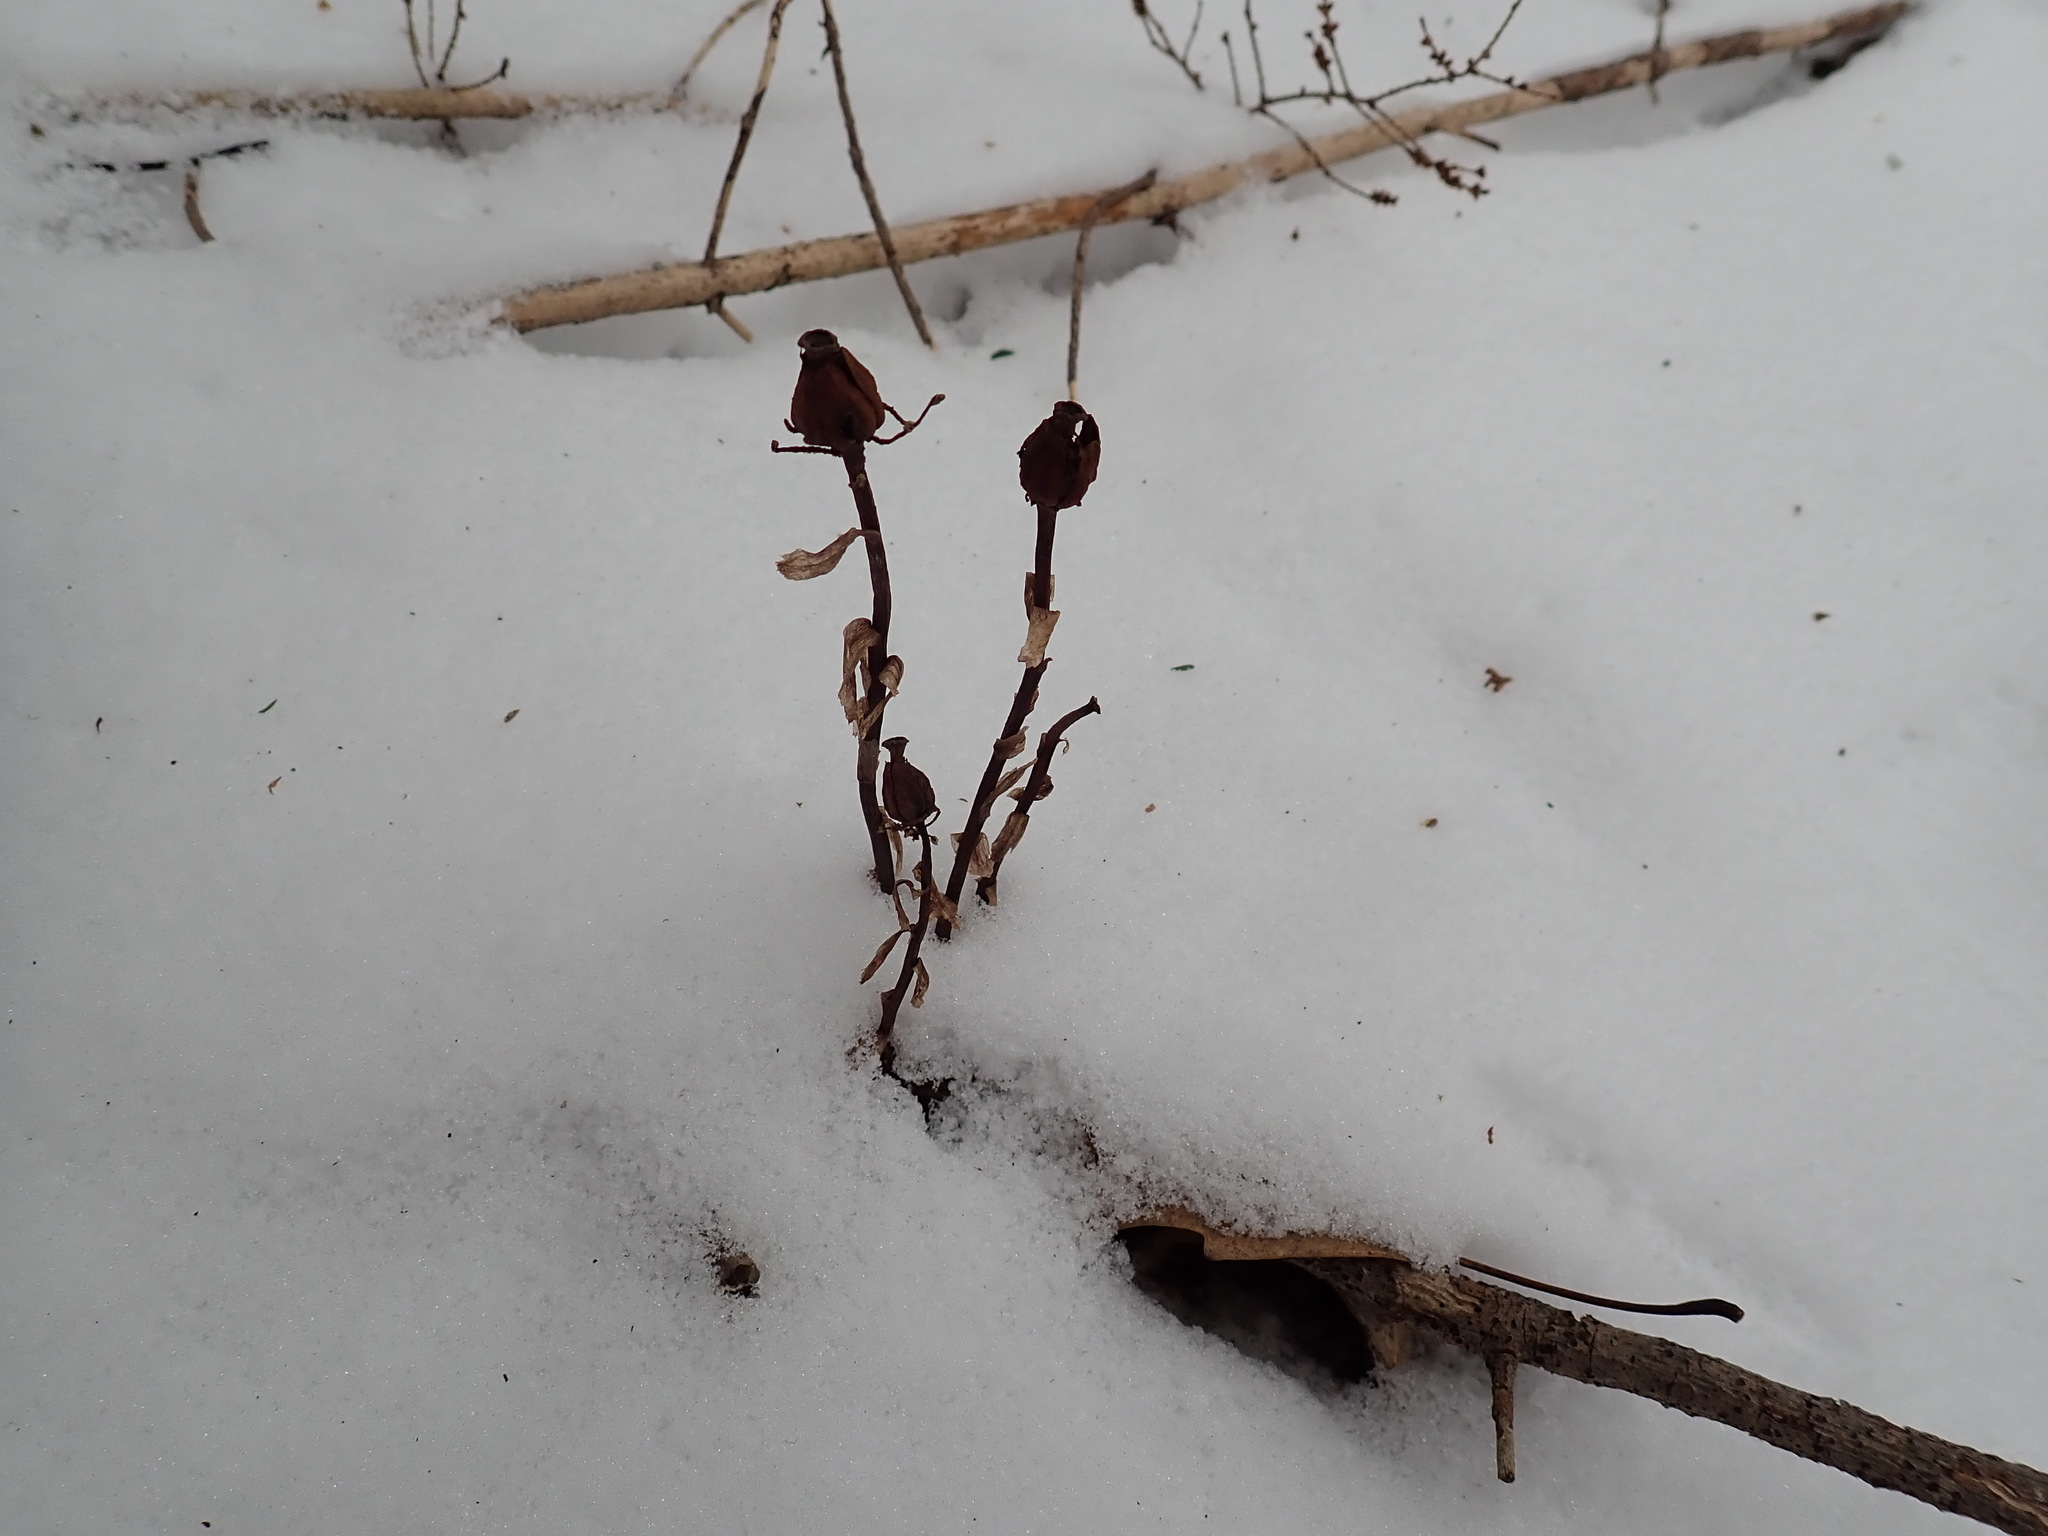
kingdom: Plantae
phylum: Tracheophyta
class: Magnoliopsida
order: Ericales
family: Ericaceae
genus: Monotropa
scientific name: Monotropa uniflora
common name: Convulsion root
